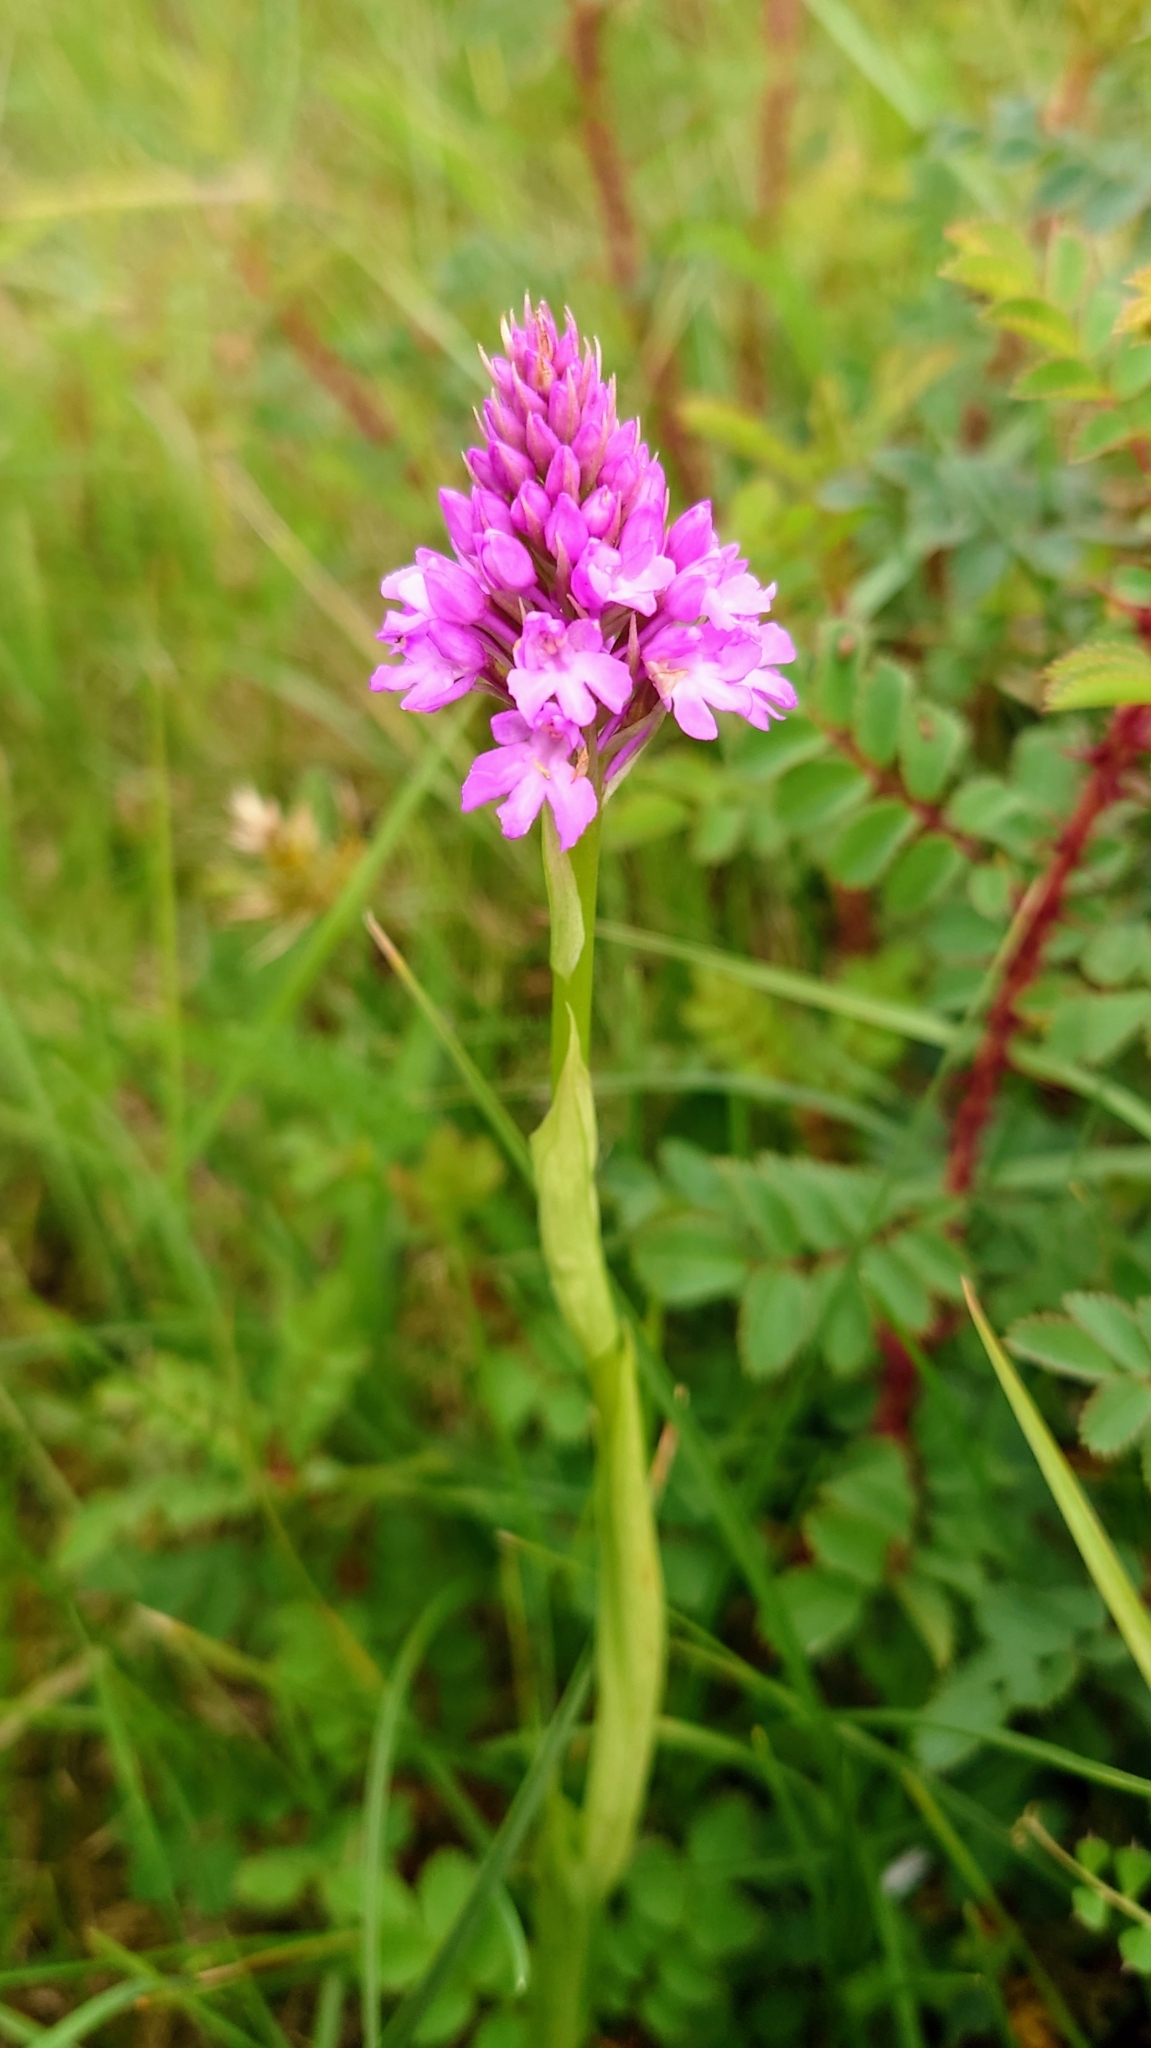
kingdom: Plantae
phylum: Tracheophyta
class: Liliopsida
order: Asparagales
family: Orchidaceae
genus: Anacamptis
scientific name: Anacamptis pyramidalis
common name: Pyramidal orchid
